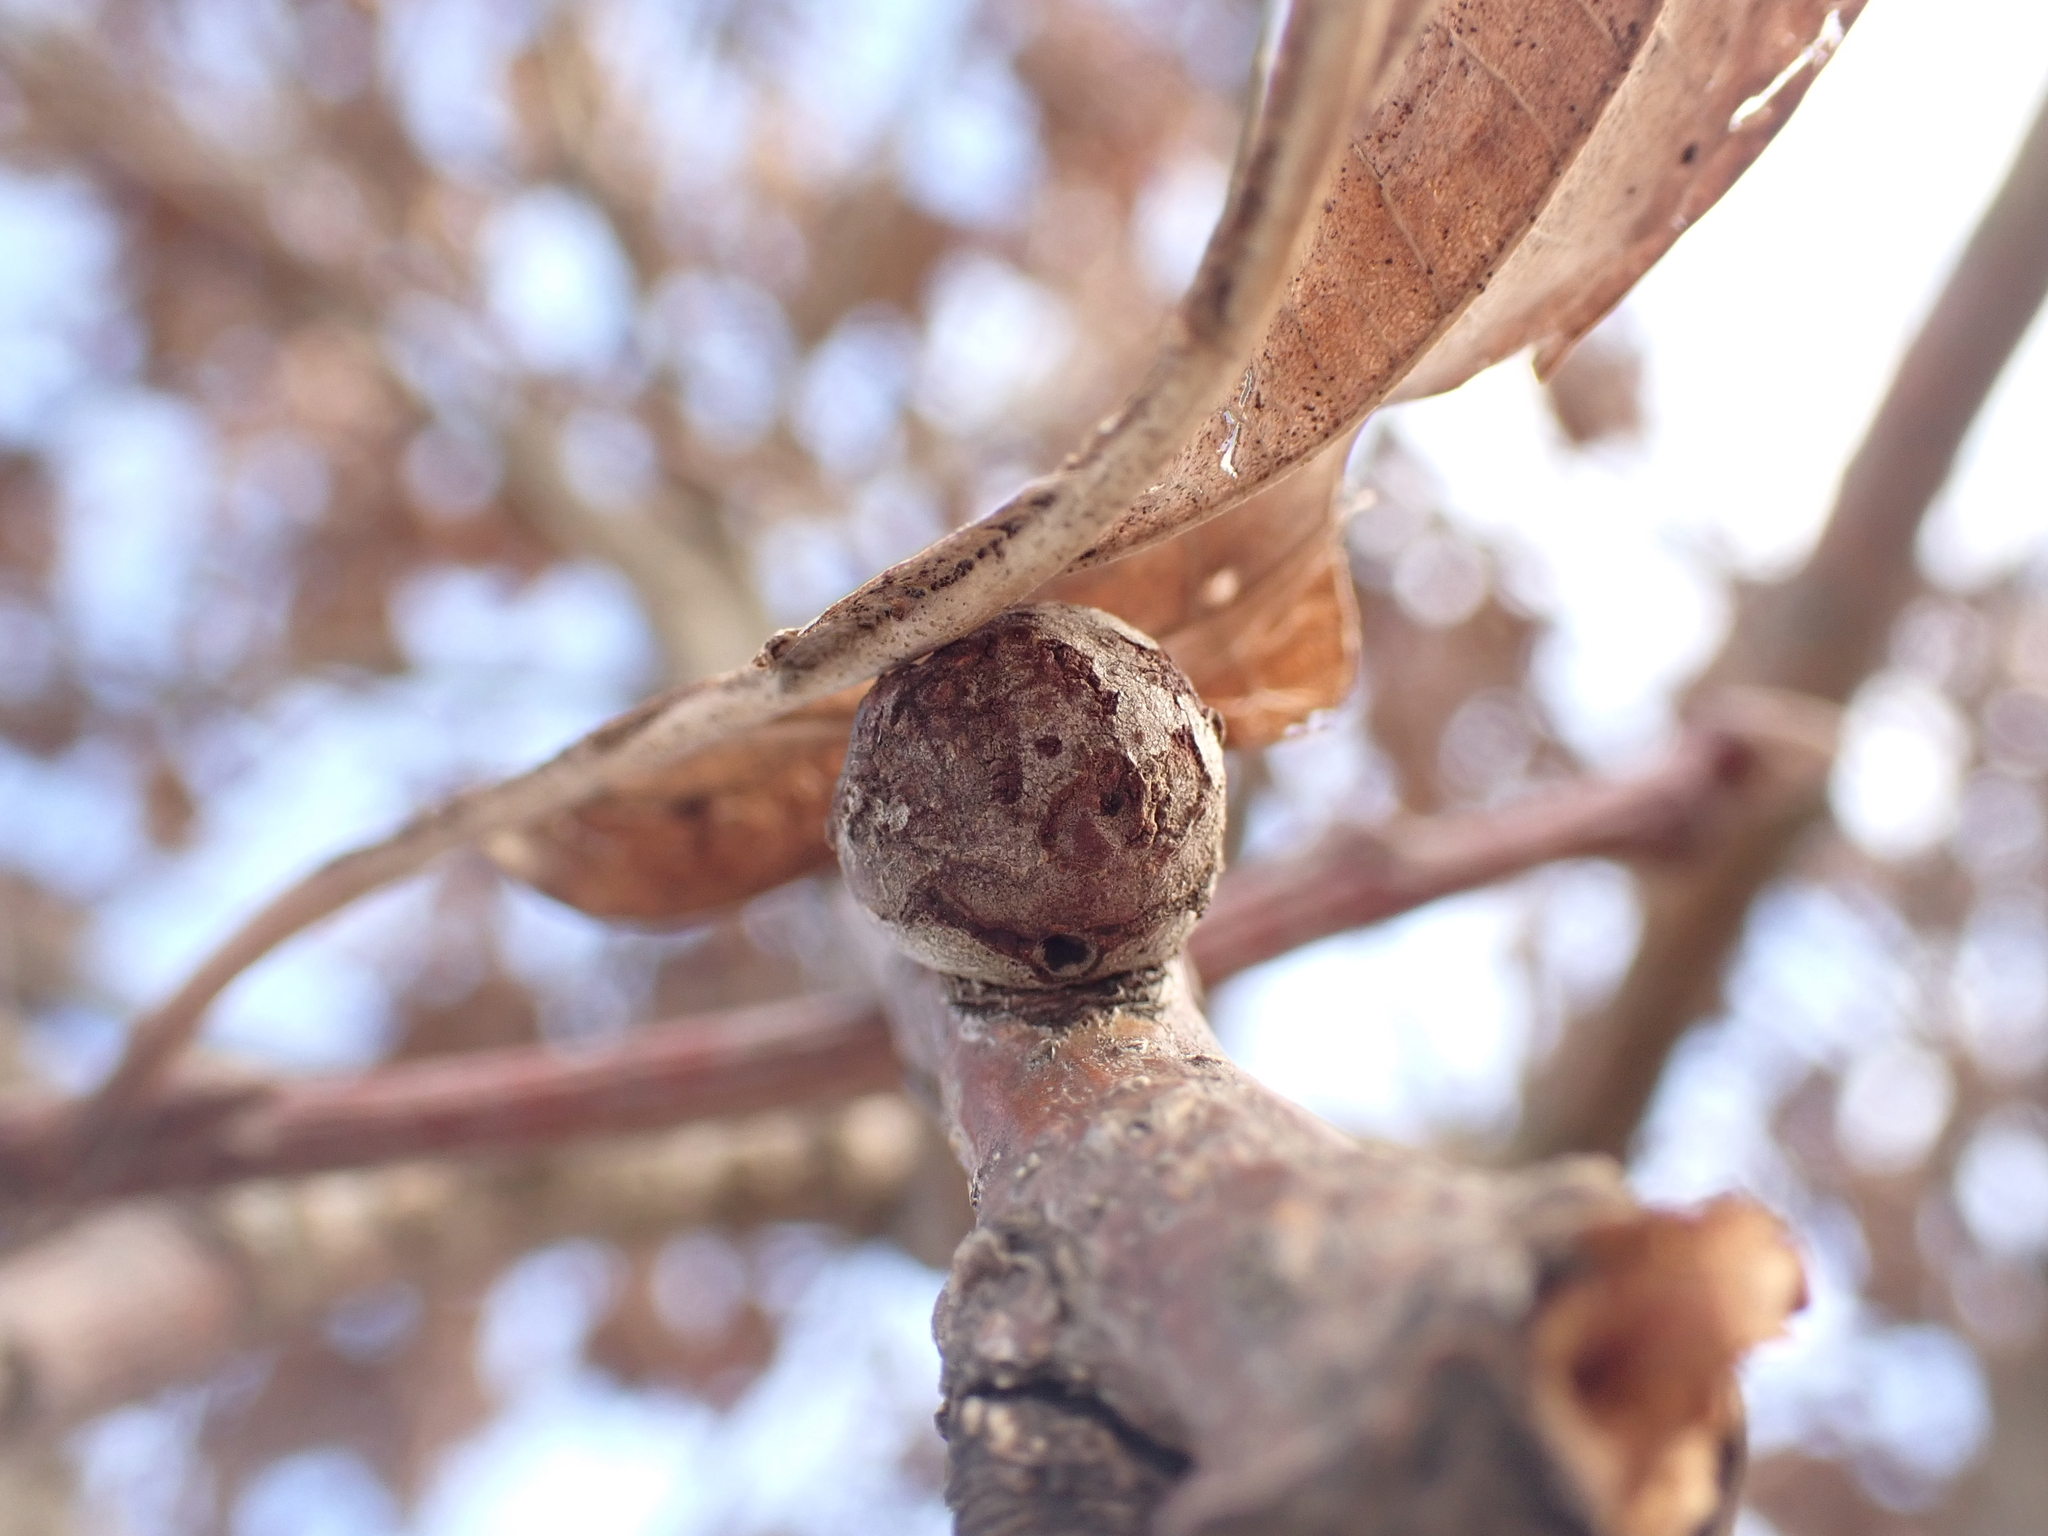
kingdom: Animalia
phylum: Arthropoda
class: Insecta
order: Hymenoptera
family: Cynipidae
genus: Andricus
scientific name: Andricus lignicolus
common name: Cola-nut gall
